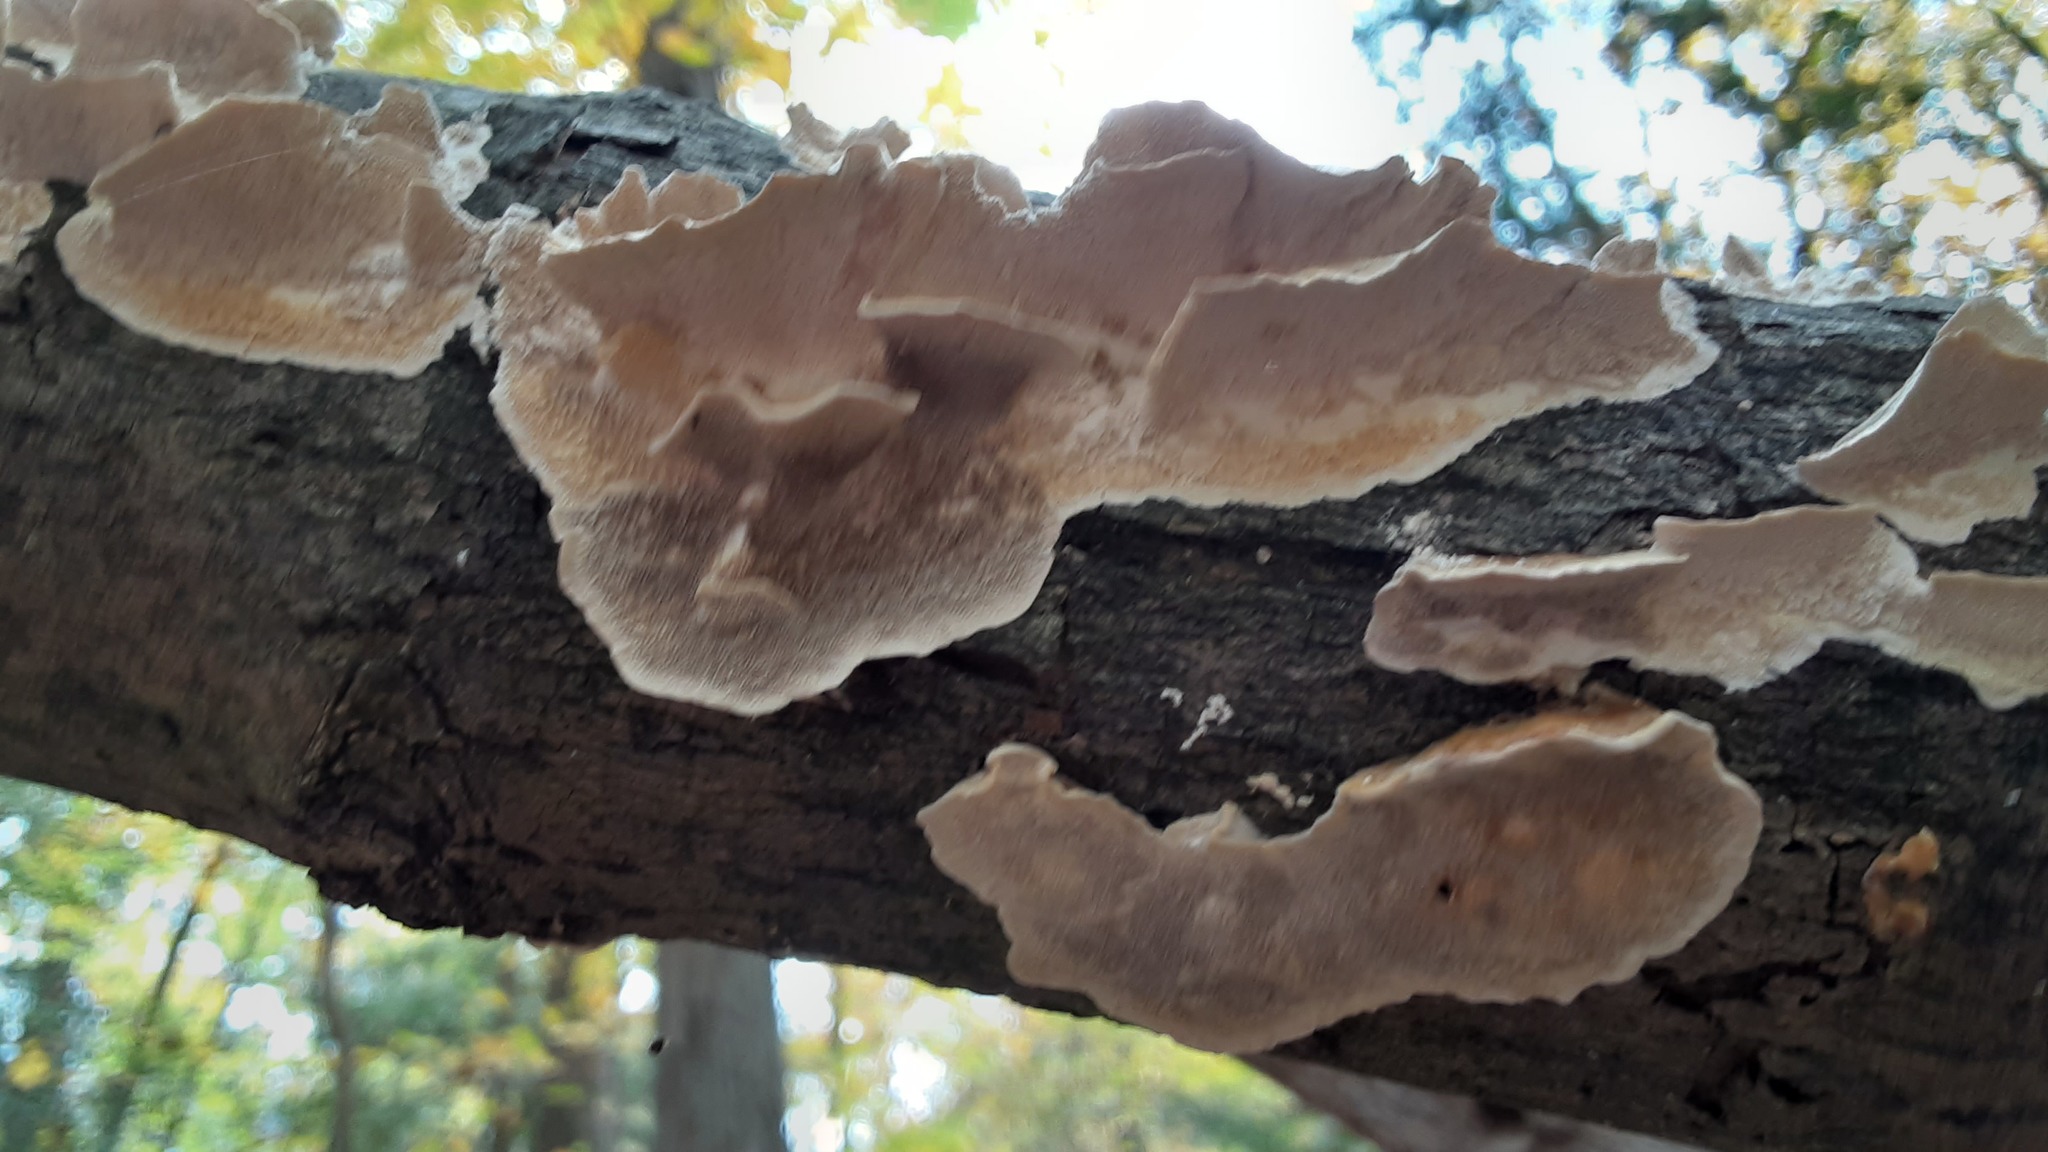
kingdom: Fungi
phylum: Basidiomycota
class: Agaricomycetes
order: Polyporales
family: Polyporaceae
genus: Trametes
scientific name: Trametes versicolor
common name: Turkeytail
